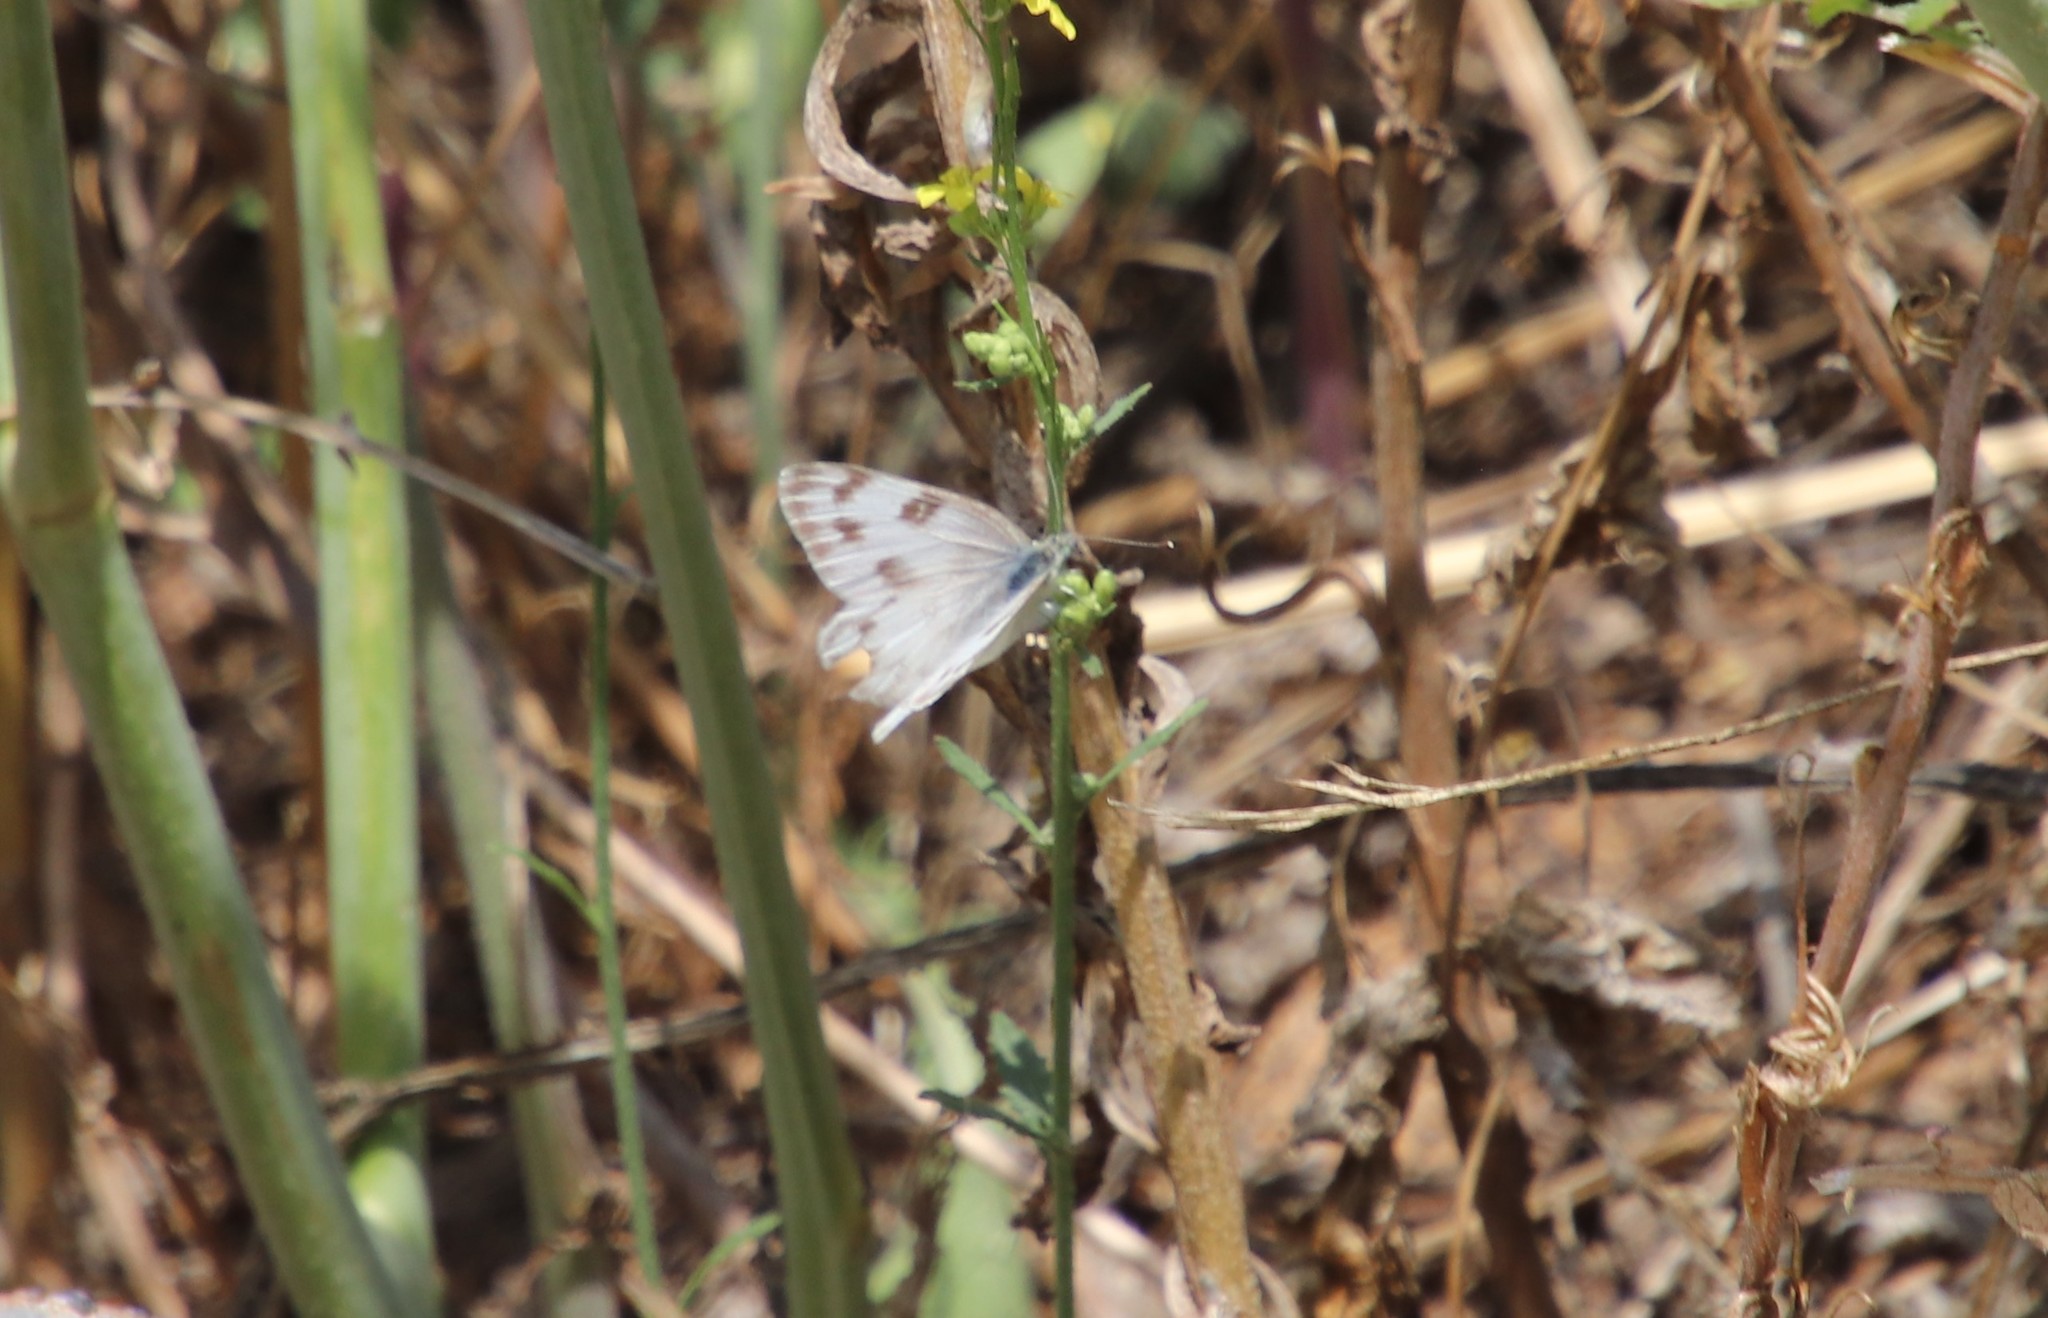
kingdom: Animalia
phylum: Arthropoda
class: Insecta
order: Lepidoptera
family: Pieridae
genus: Pontia
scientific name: Pontia protodice
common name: Checkered white
